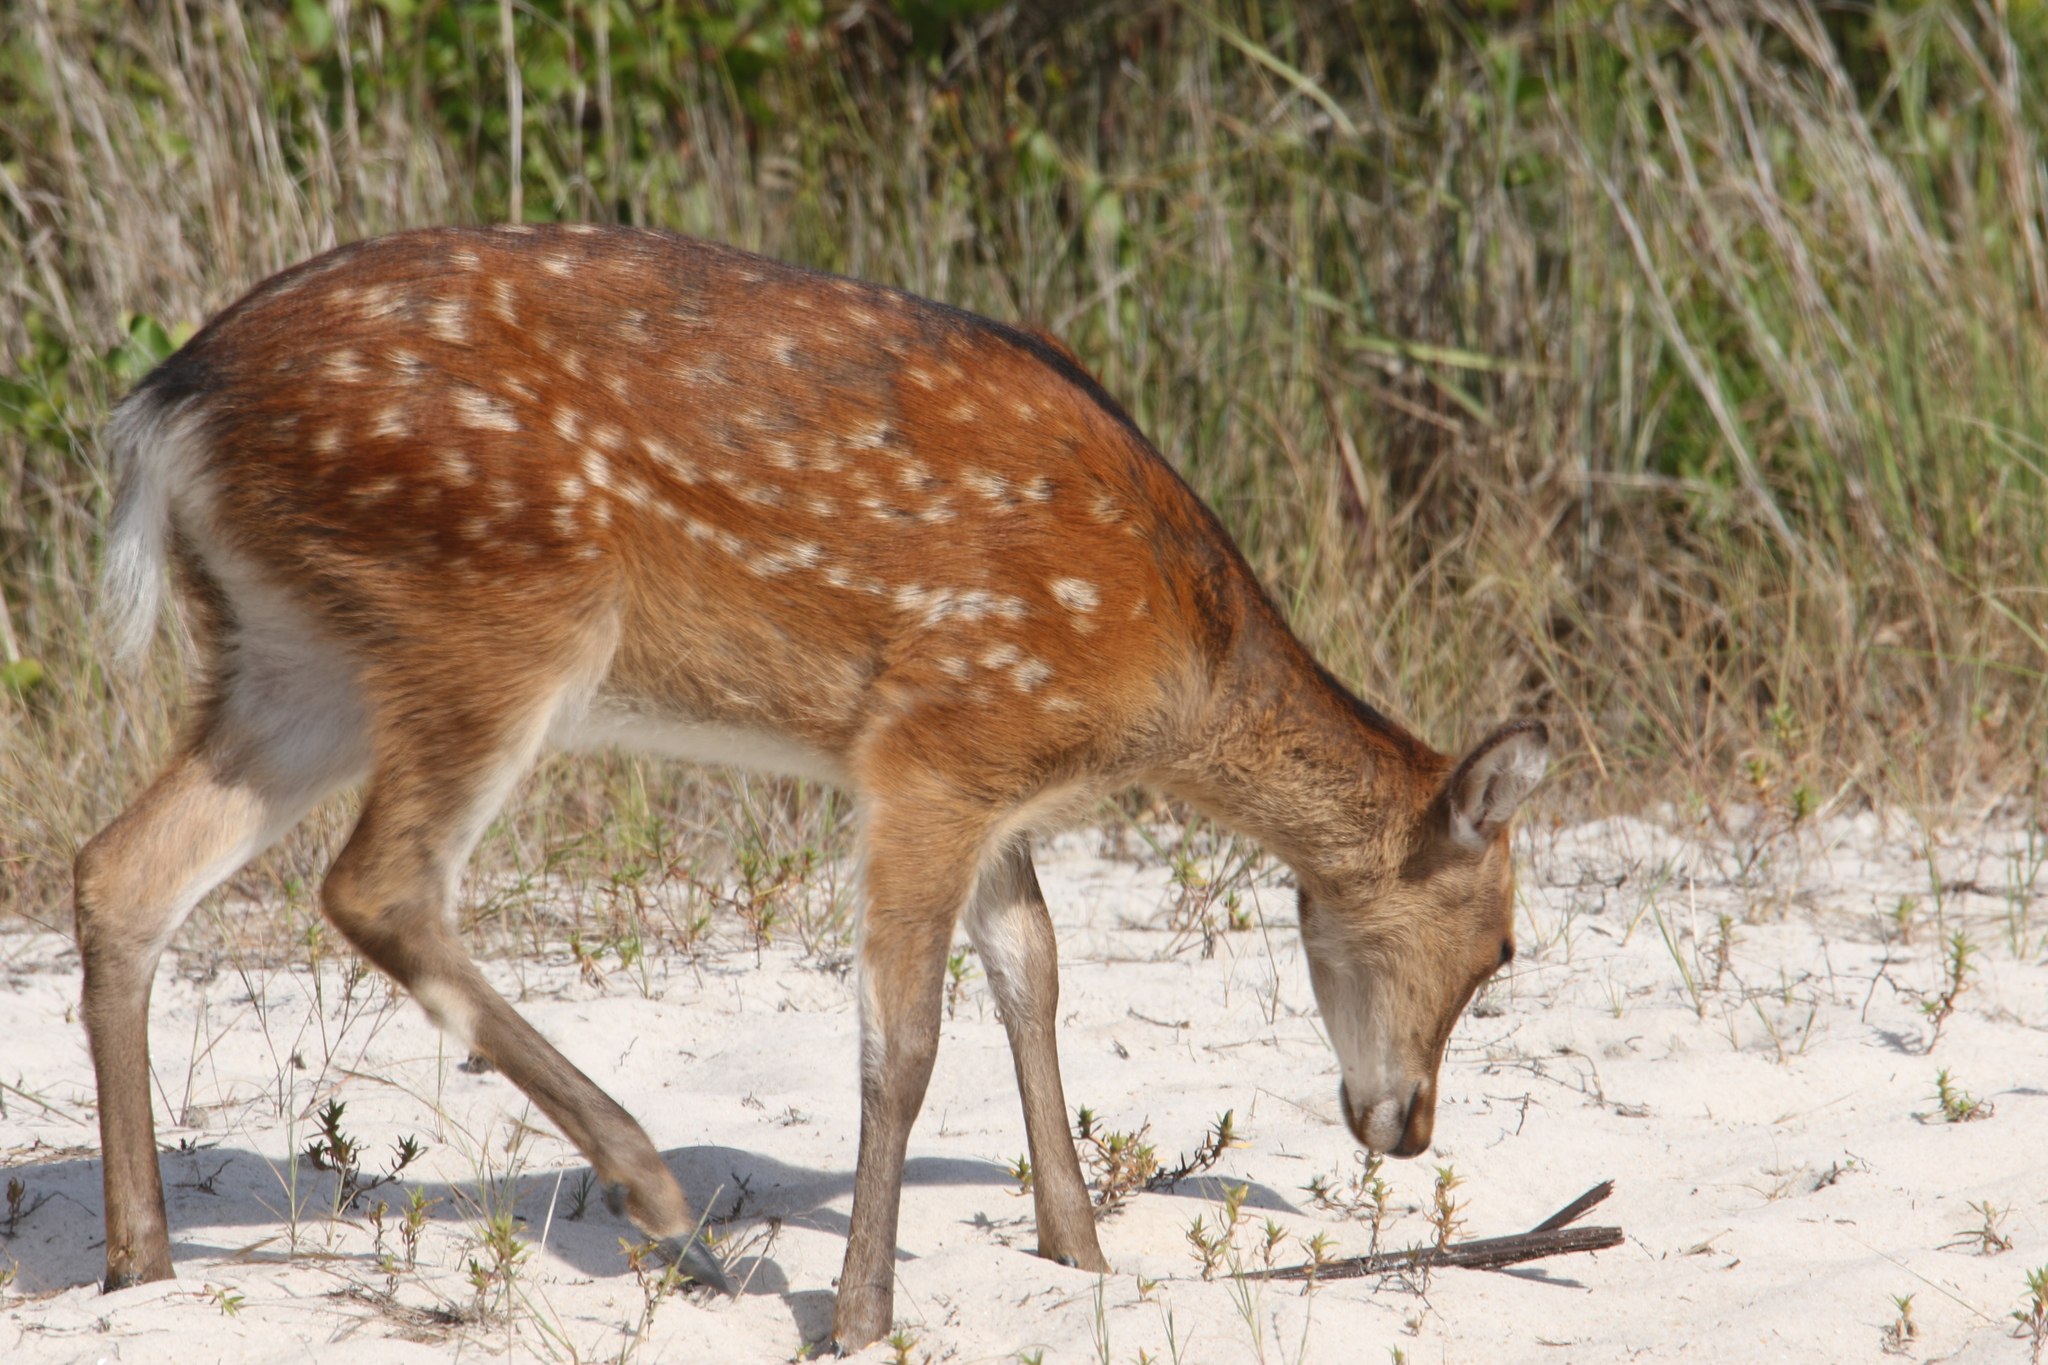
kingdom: Animalia
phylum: Chordata
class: Mammalia
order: Artiodactyla
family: Cervidae
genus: Cervus
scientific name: Cervus nippon
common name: Sika deer
